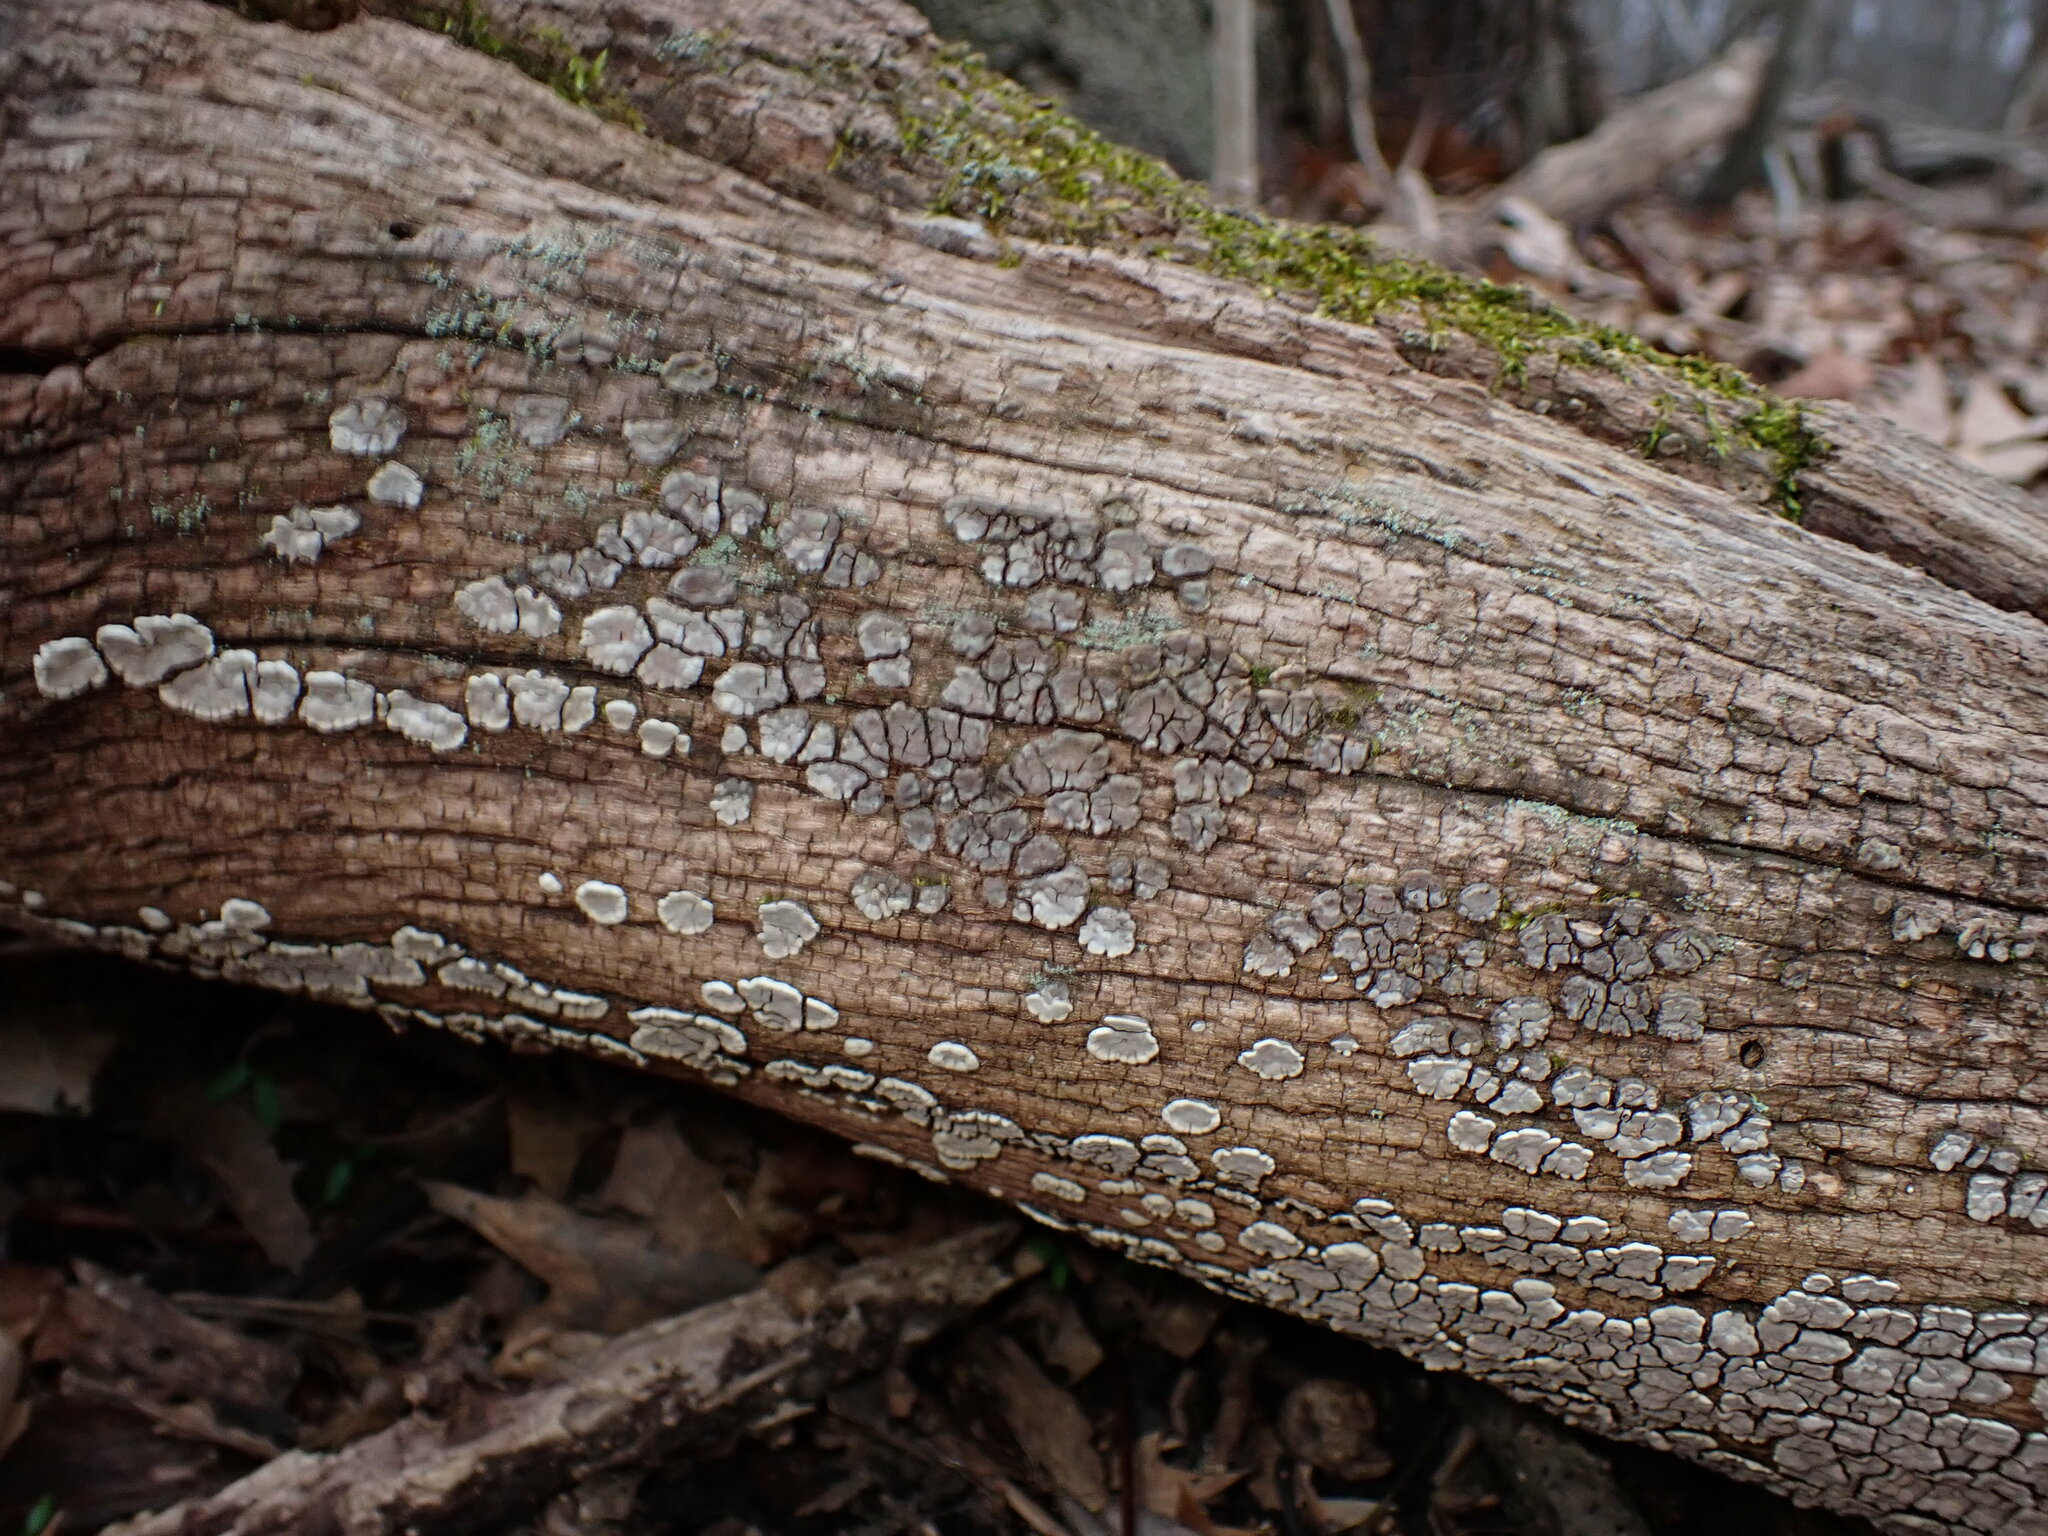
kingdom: Fungi
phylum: Basidiomycota
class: Agaricomycetes
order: Russulales
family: Stereaceae
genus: Xylobolus
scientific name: Xylobolus frustulatus
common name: Ceramic parchment
